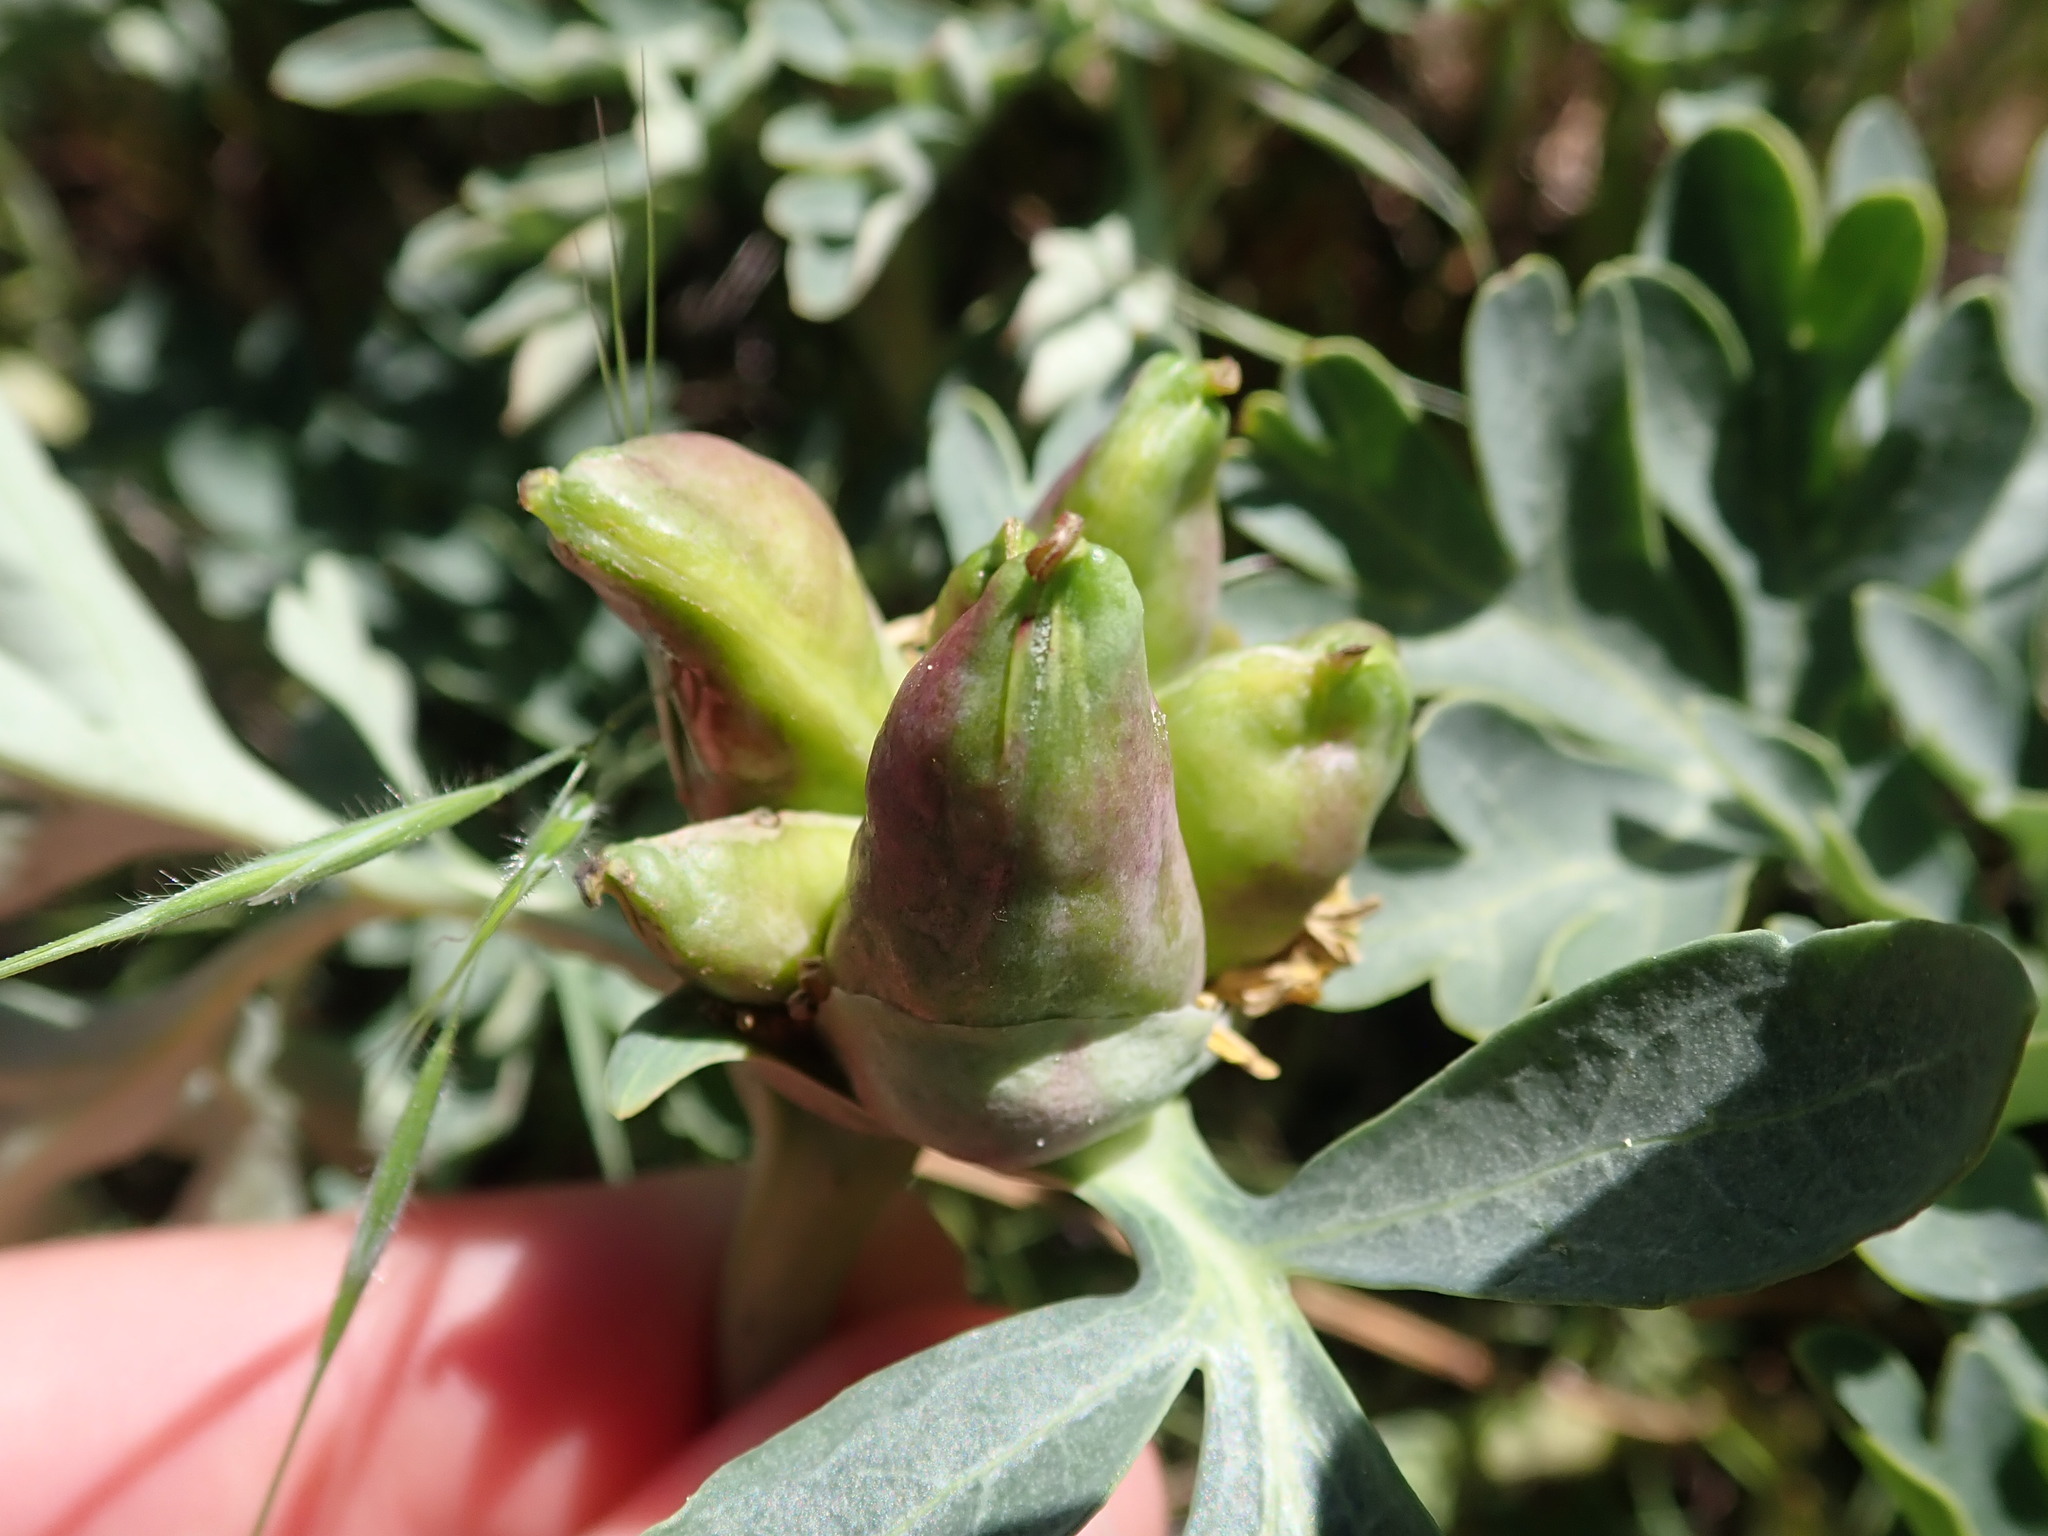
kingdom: Plantae
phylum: Tracheophyta
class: Magnoliopsida
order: Saxifragales
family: Paeoniaceae
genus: Paeonia
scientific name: Paeonia brownii
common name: Brown's peony
